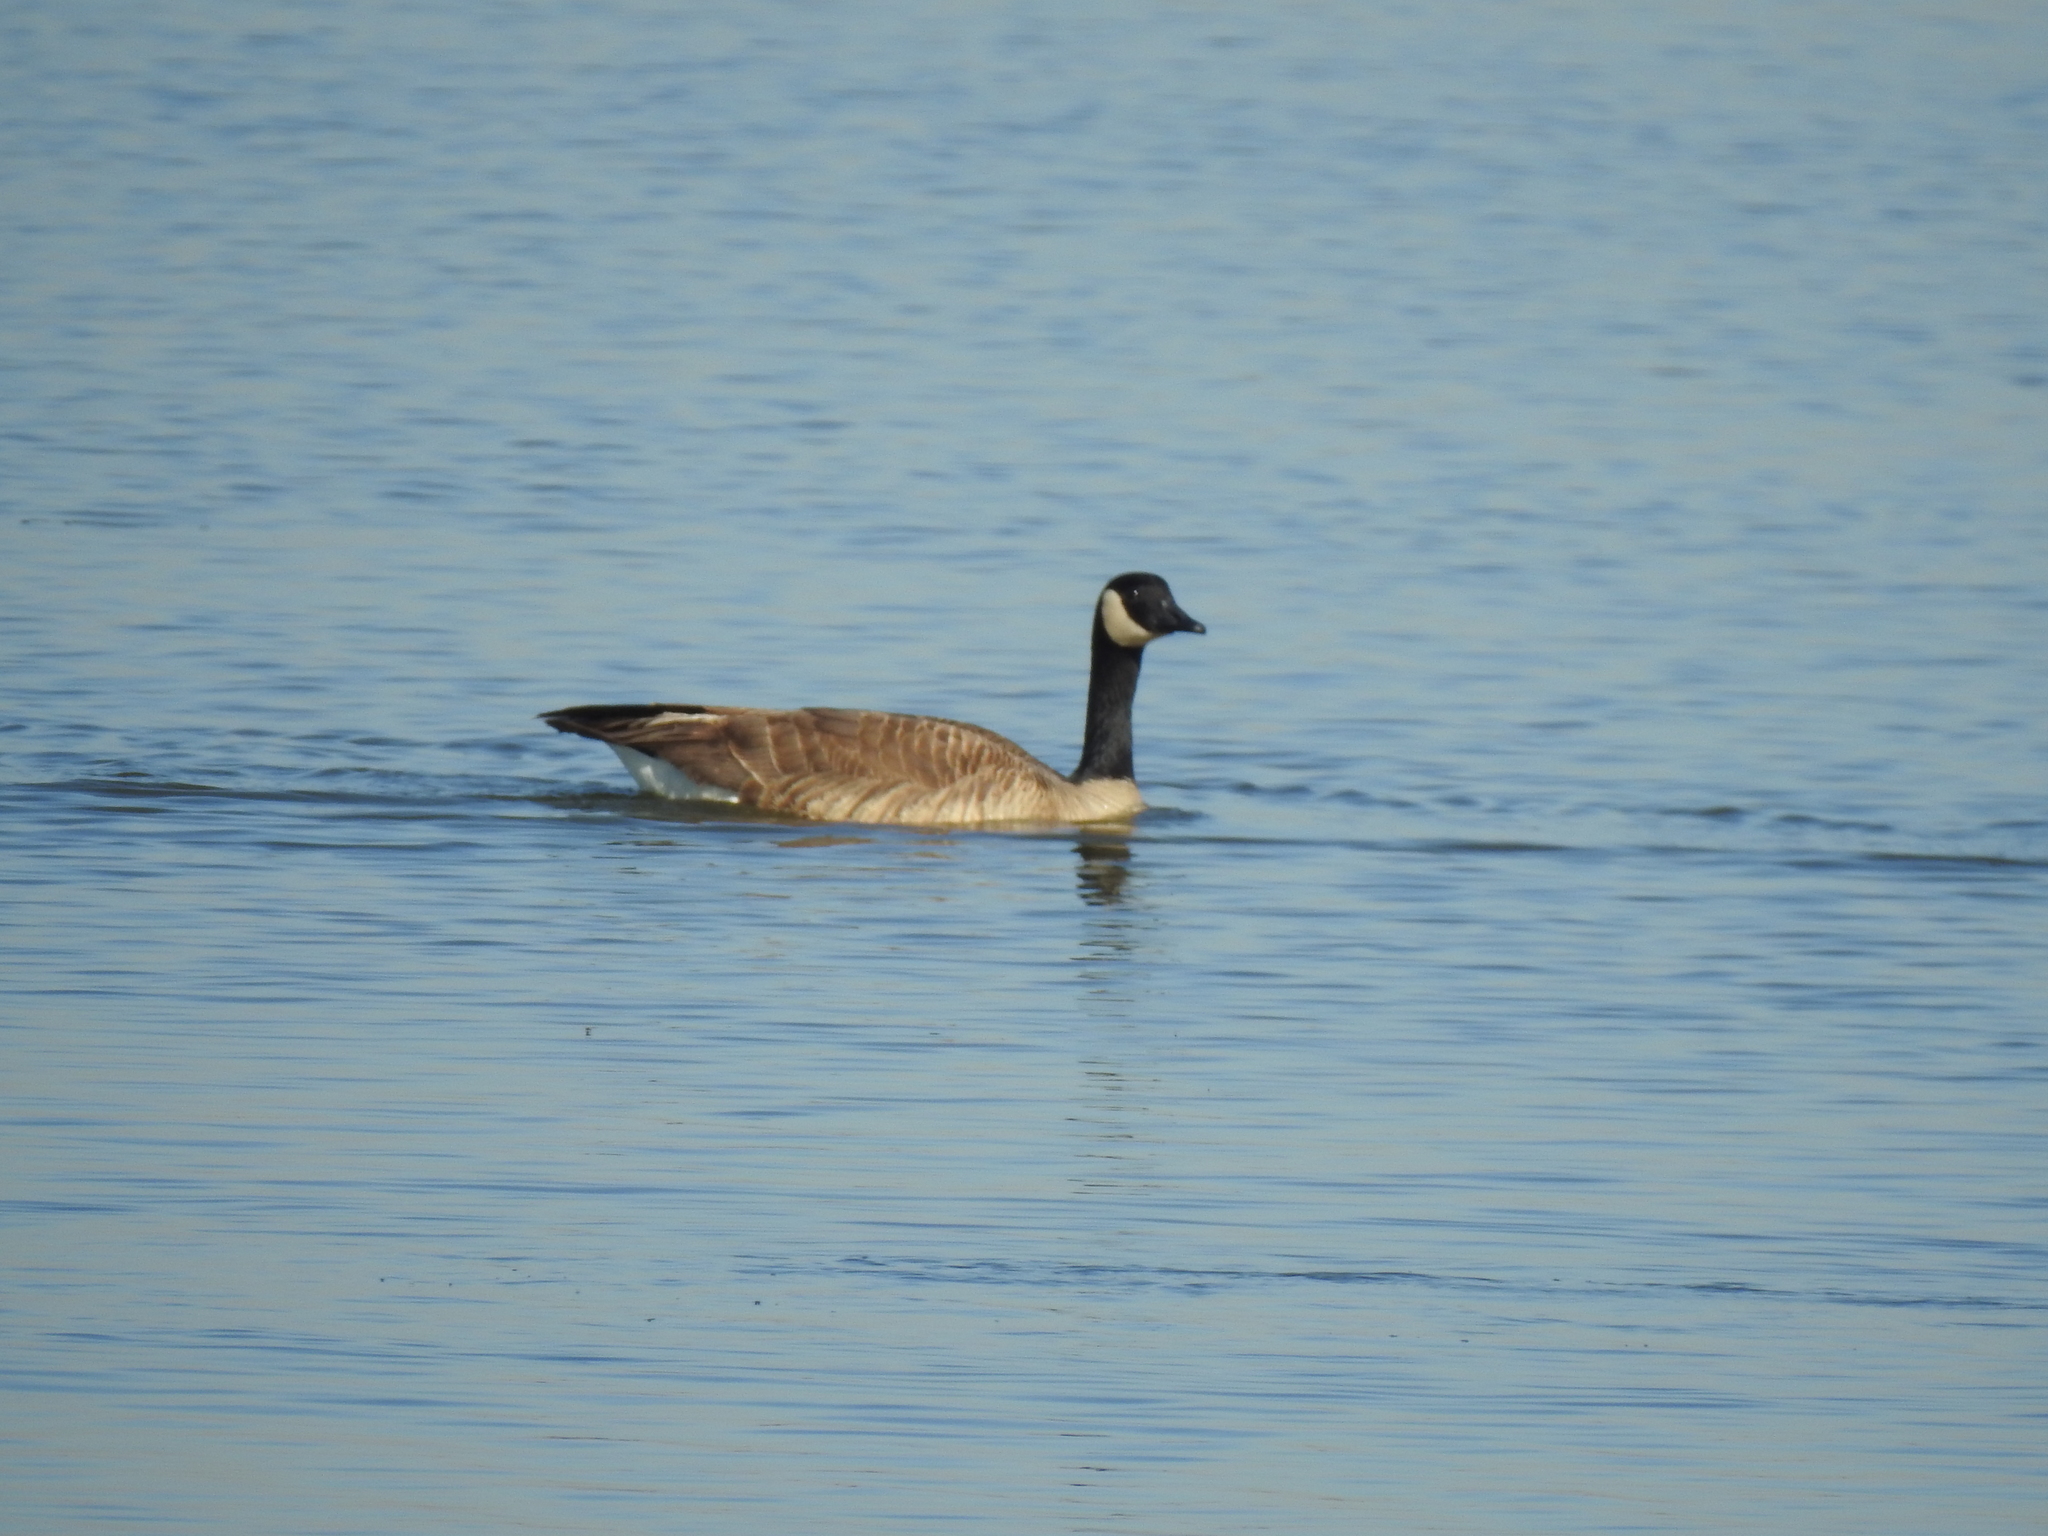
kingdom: Animalia
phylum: Chordata
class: Aves
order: Anseriformes
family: Anatidae
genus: Branta
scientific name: Branta canadensis
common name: Canada goose
